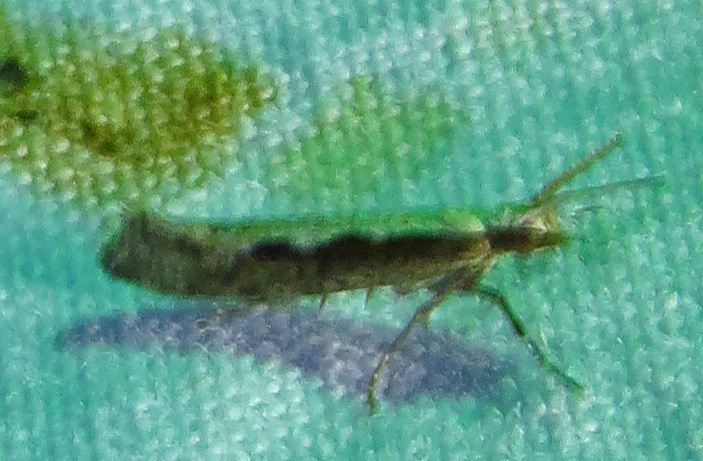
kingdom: Animalia
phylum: Arthropoda
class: Insecta
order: Lepidoptera
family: Plutellidae
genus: Plutella
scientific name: Plutella xylostella
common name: Diamond-back moth
